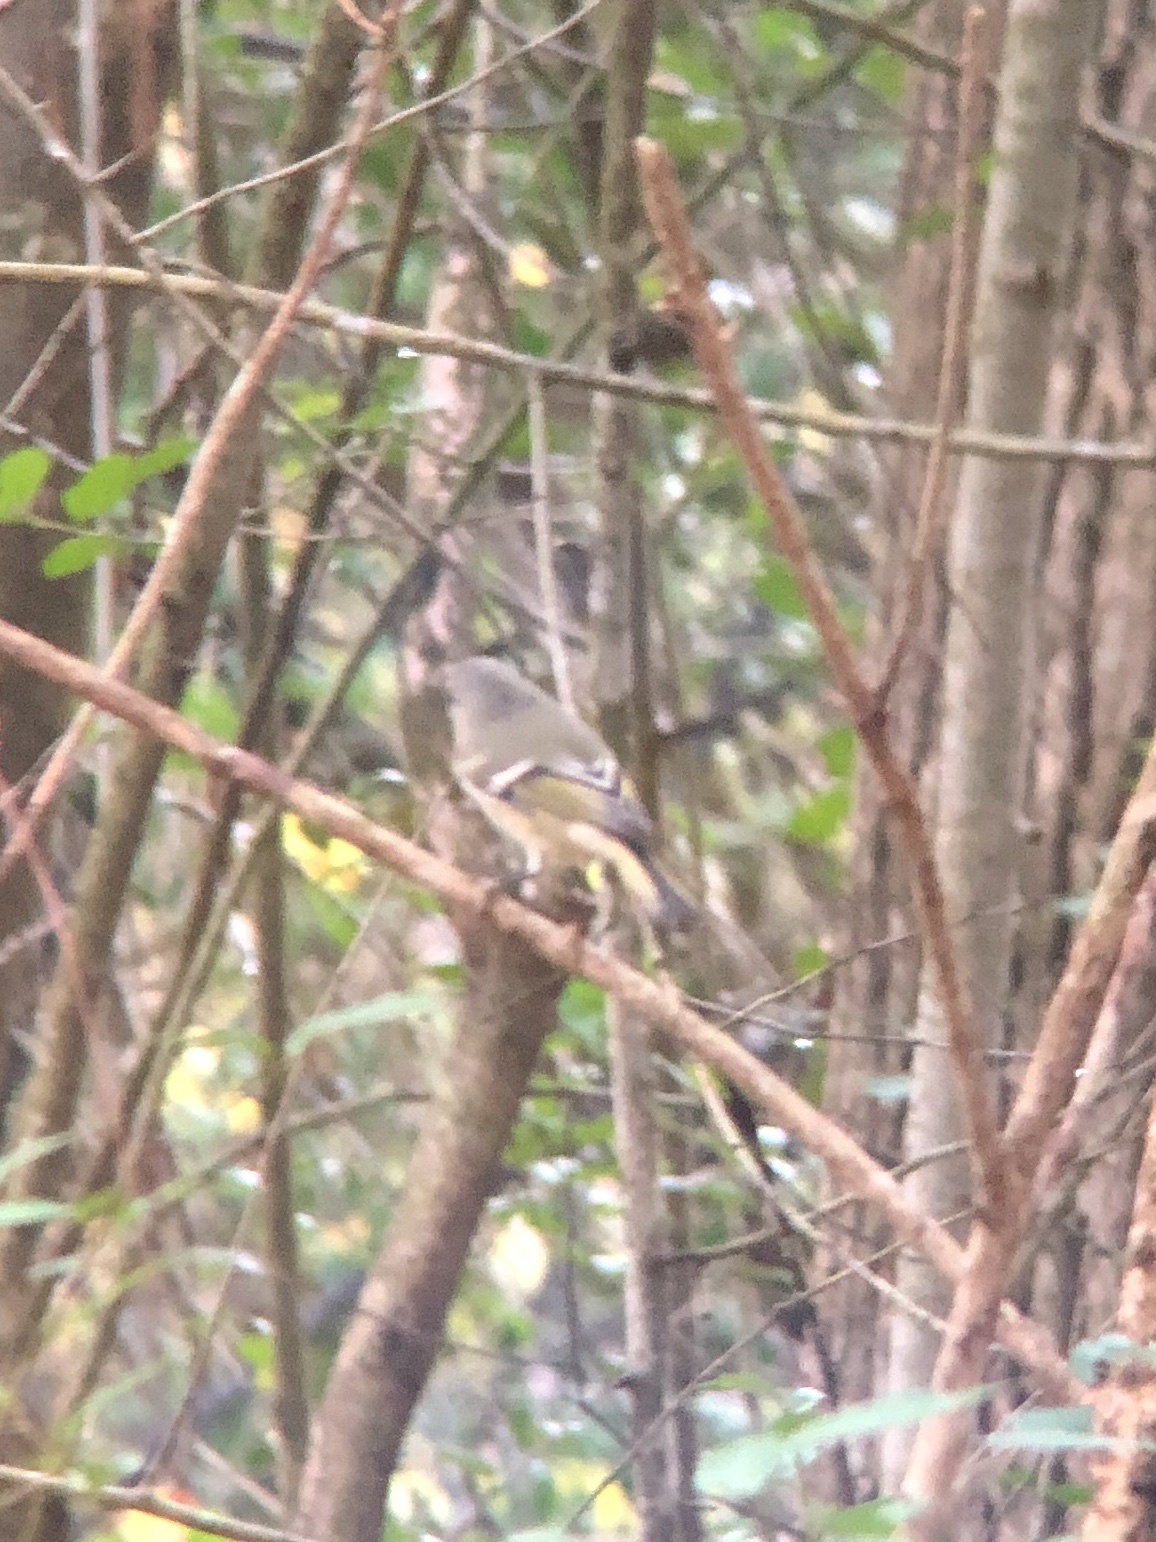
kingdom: Animalia
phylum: Chordata
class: Aves
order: Passeriformes
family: Regulidae
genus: Regulus
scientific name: Regulus calendula
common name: Ruby-crowned kinglet
